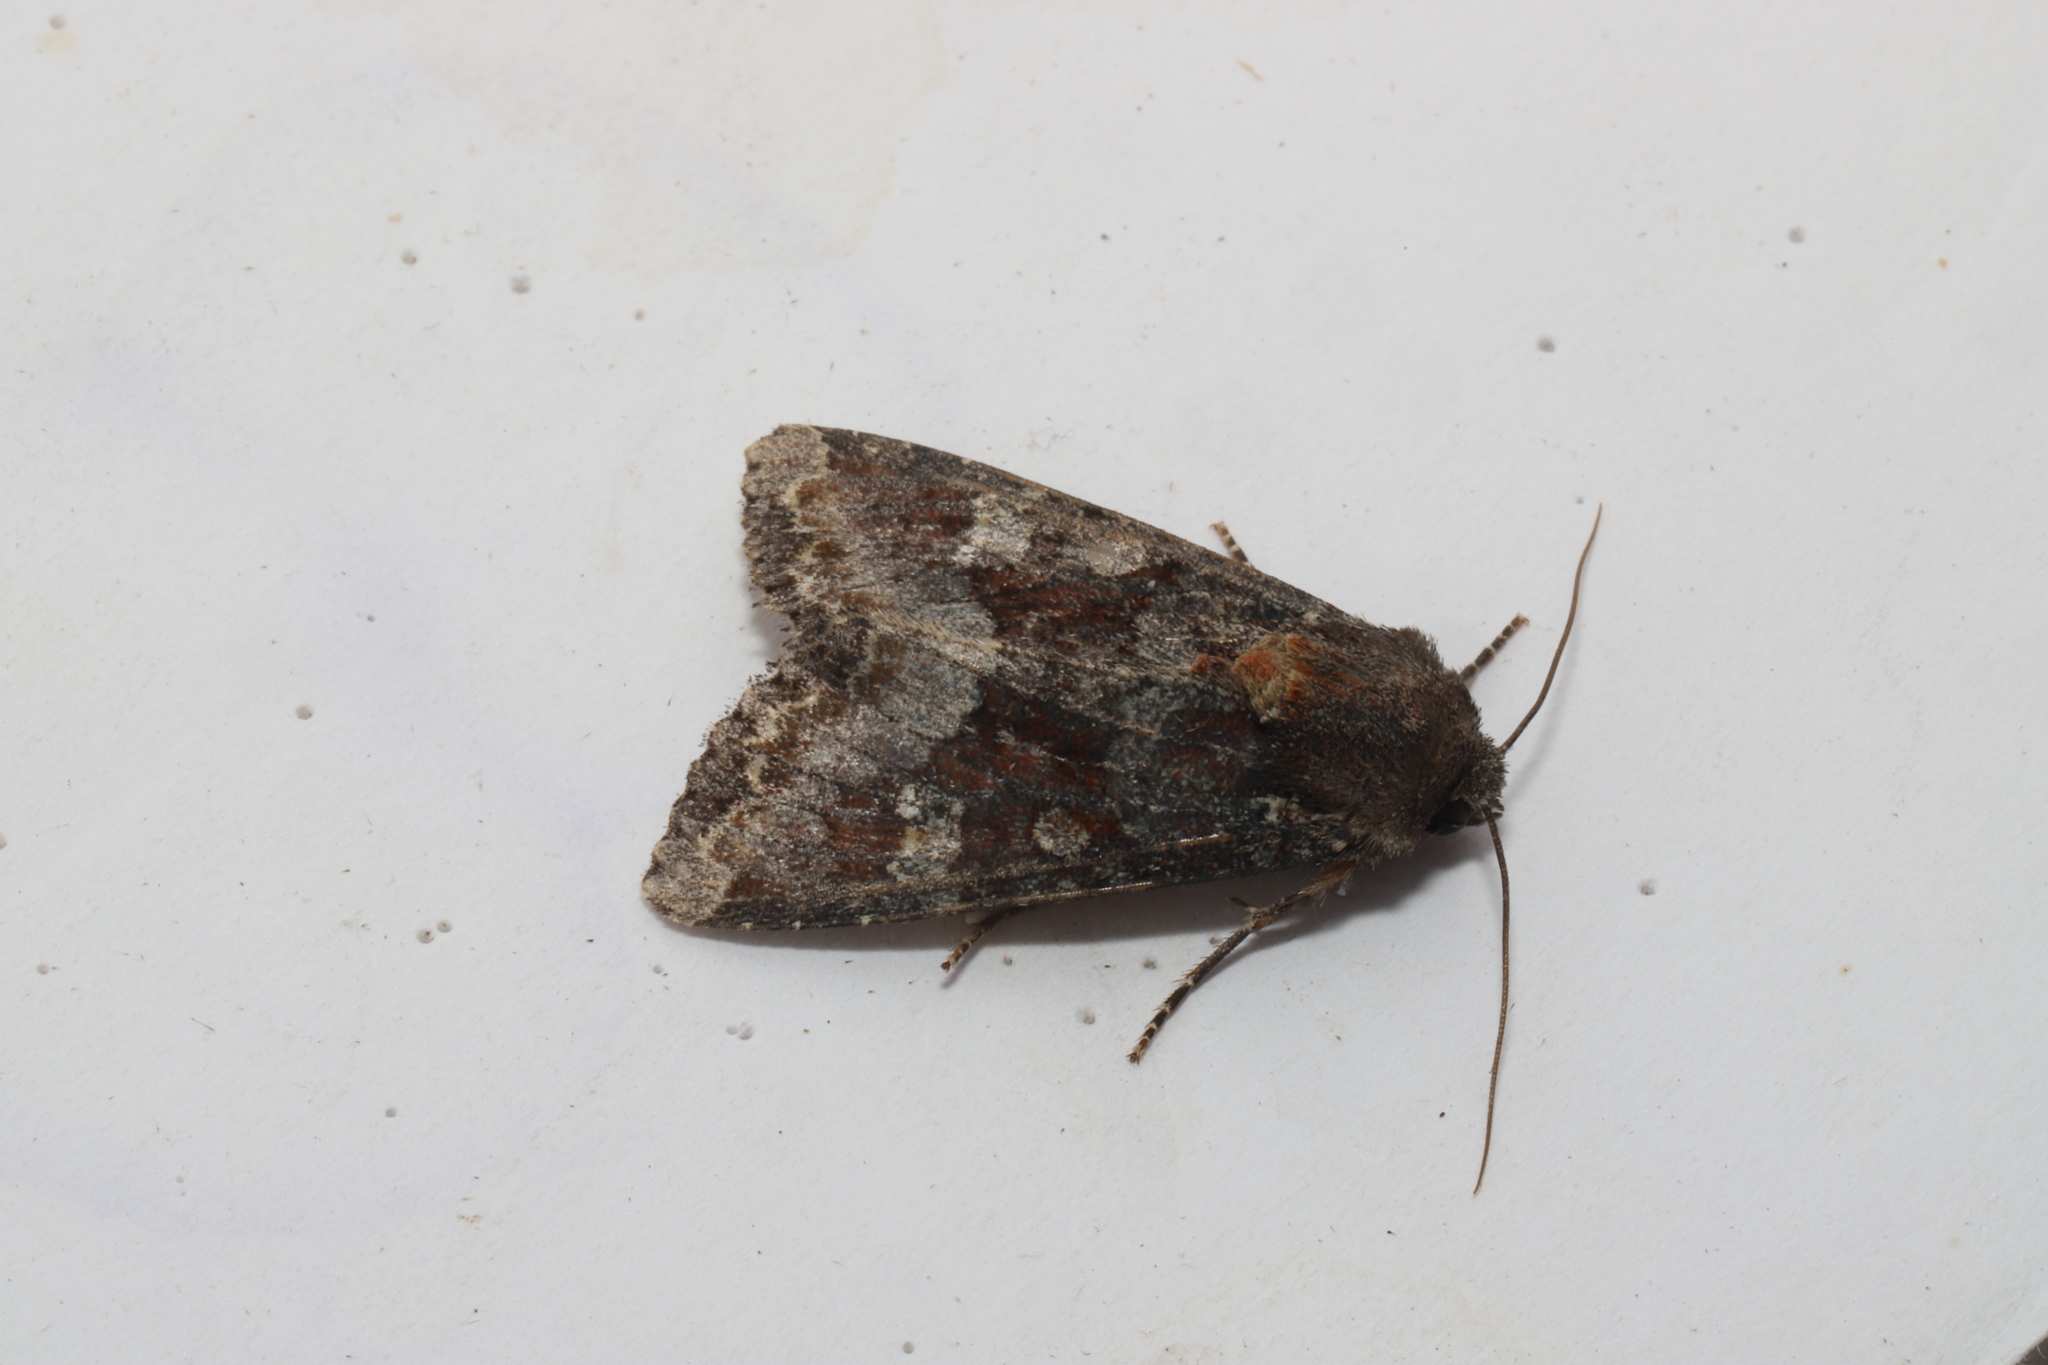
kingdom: Animalia
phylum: Arthropoda
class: Insecta
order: Lepidoptera
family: Noctuidae
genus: Apamea
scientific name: Apamea amputatrix
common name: Yellow-headed cutworm moth
